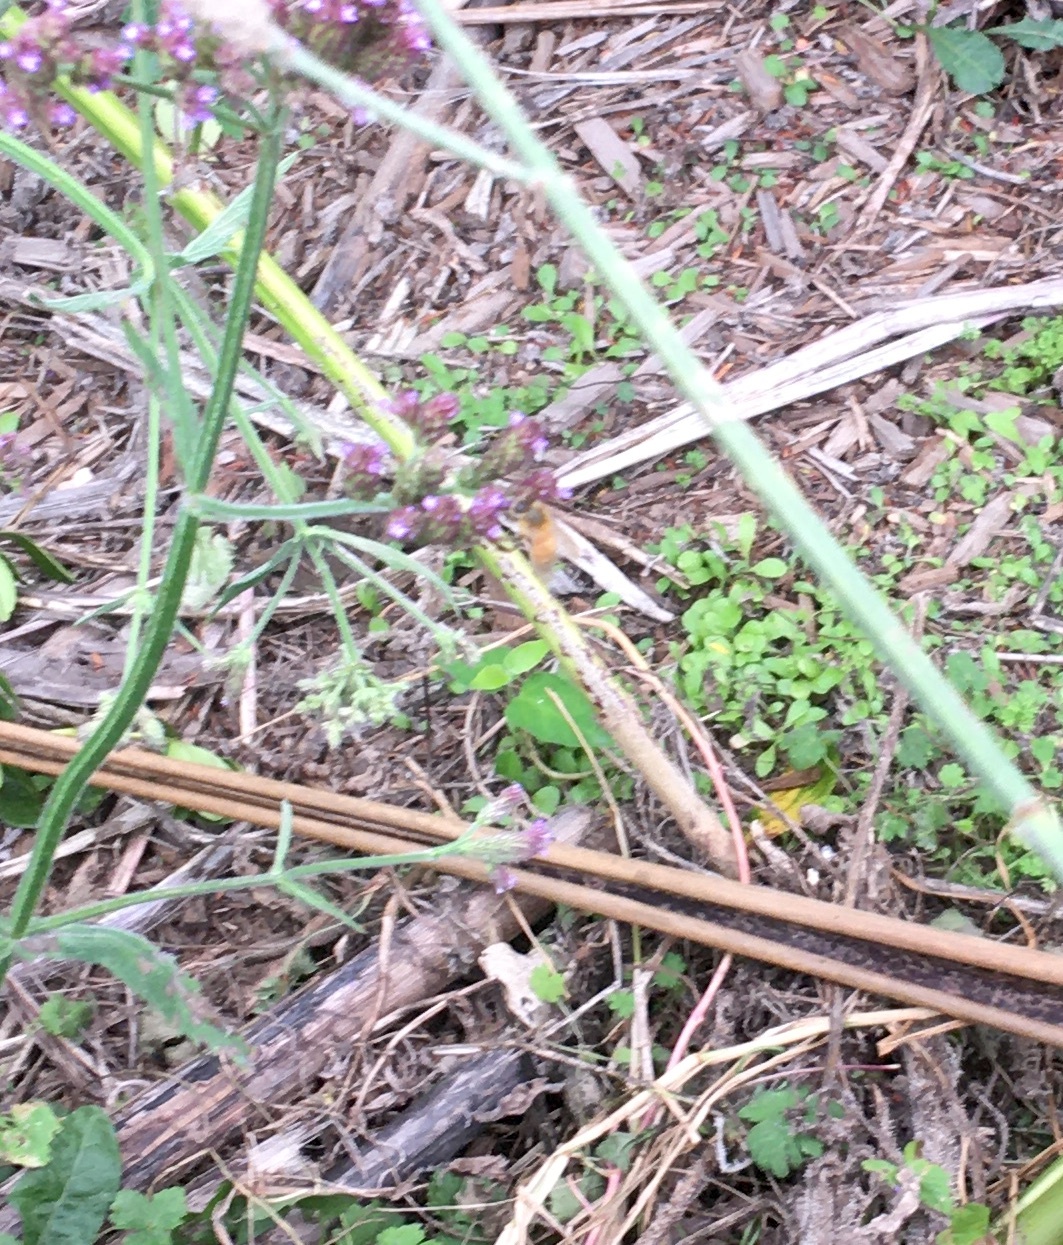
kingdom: Plantae
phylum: Tracheophyta
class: Magnoliopsida
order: Gentianales
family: Apocynaceae
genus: Araujia
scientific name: Araujia sericifera
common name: White bladderflower
